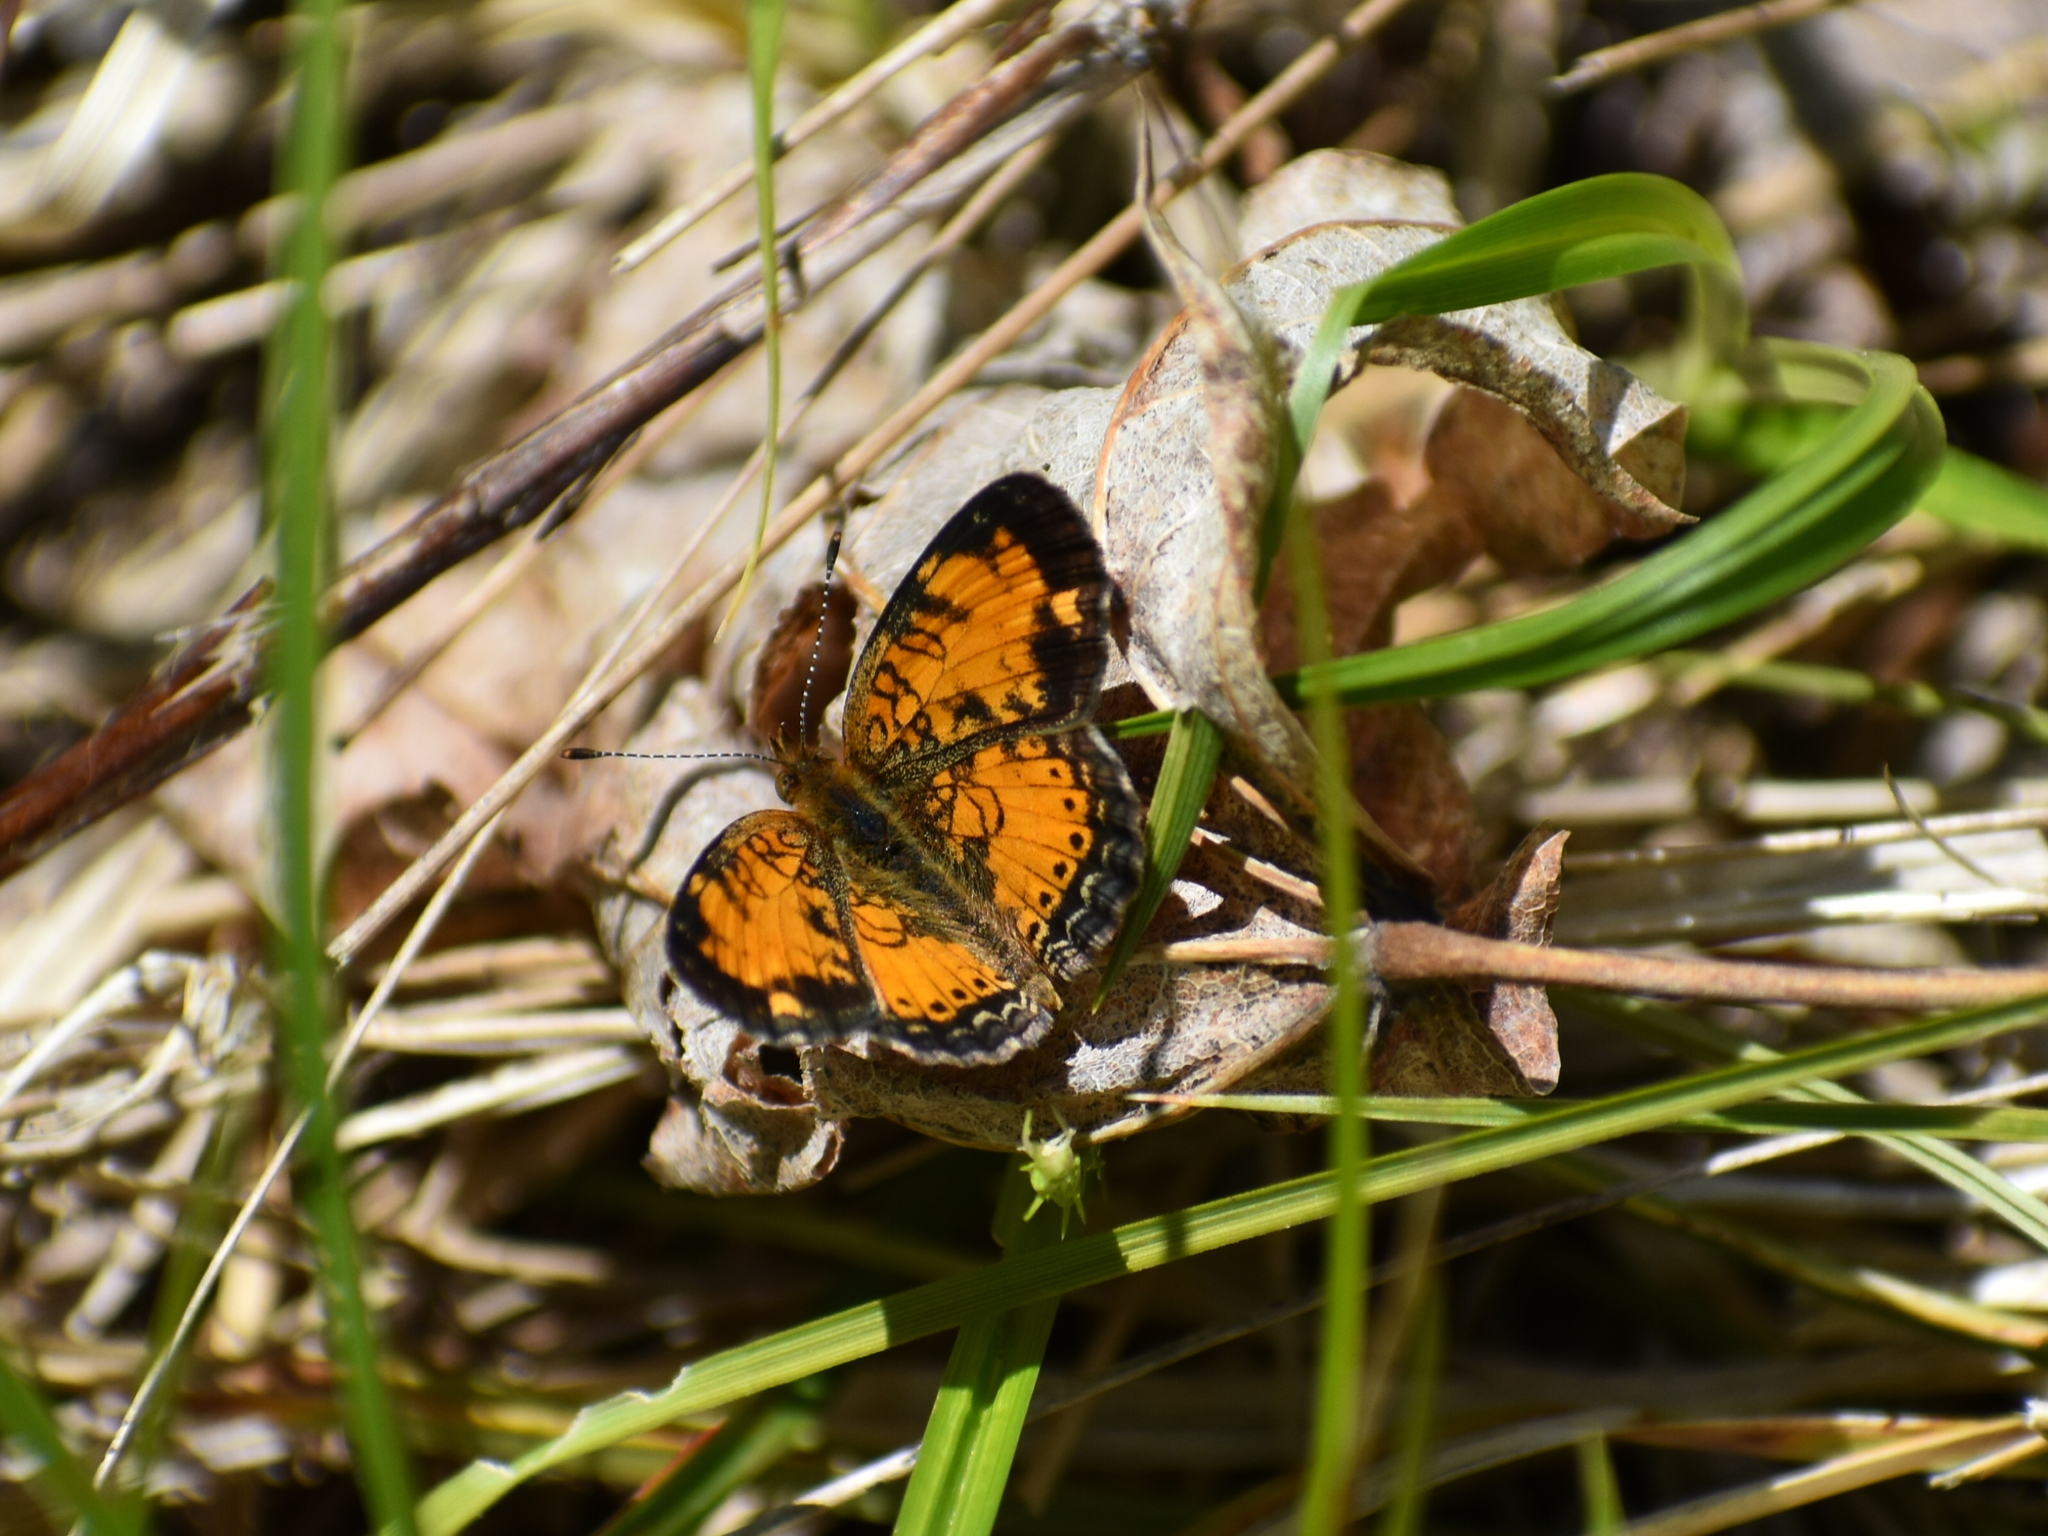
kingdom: Animalia
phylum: Arthropoda
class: Insecta
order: Lepidoptera
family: Nymphalidae
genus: Phyciodes
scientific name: Phyciodes tharos
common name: Pearl crescent
